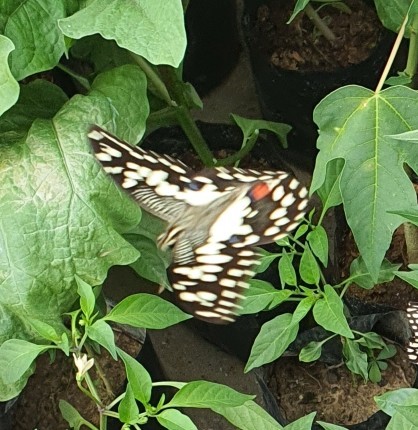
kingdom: Animalia
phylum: Arthropoda
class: Insecta
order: Lepidoptera
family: Papilionidae
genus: Papilio
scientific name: Papilio demoleus
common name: Lime butterfly
